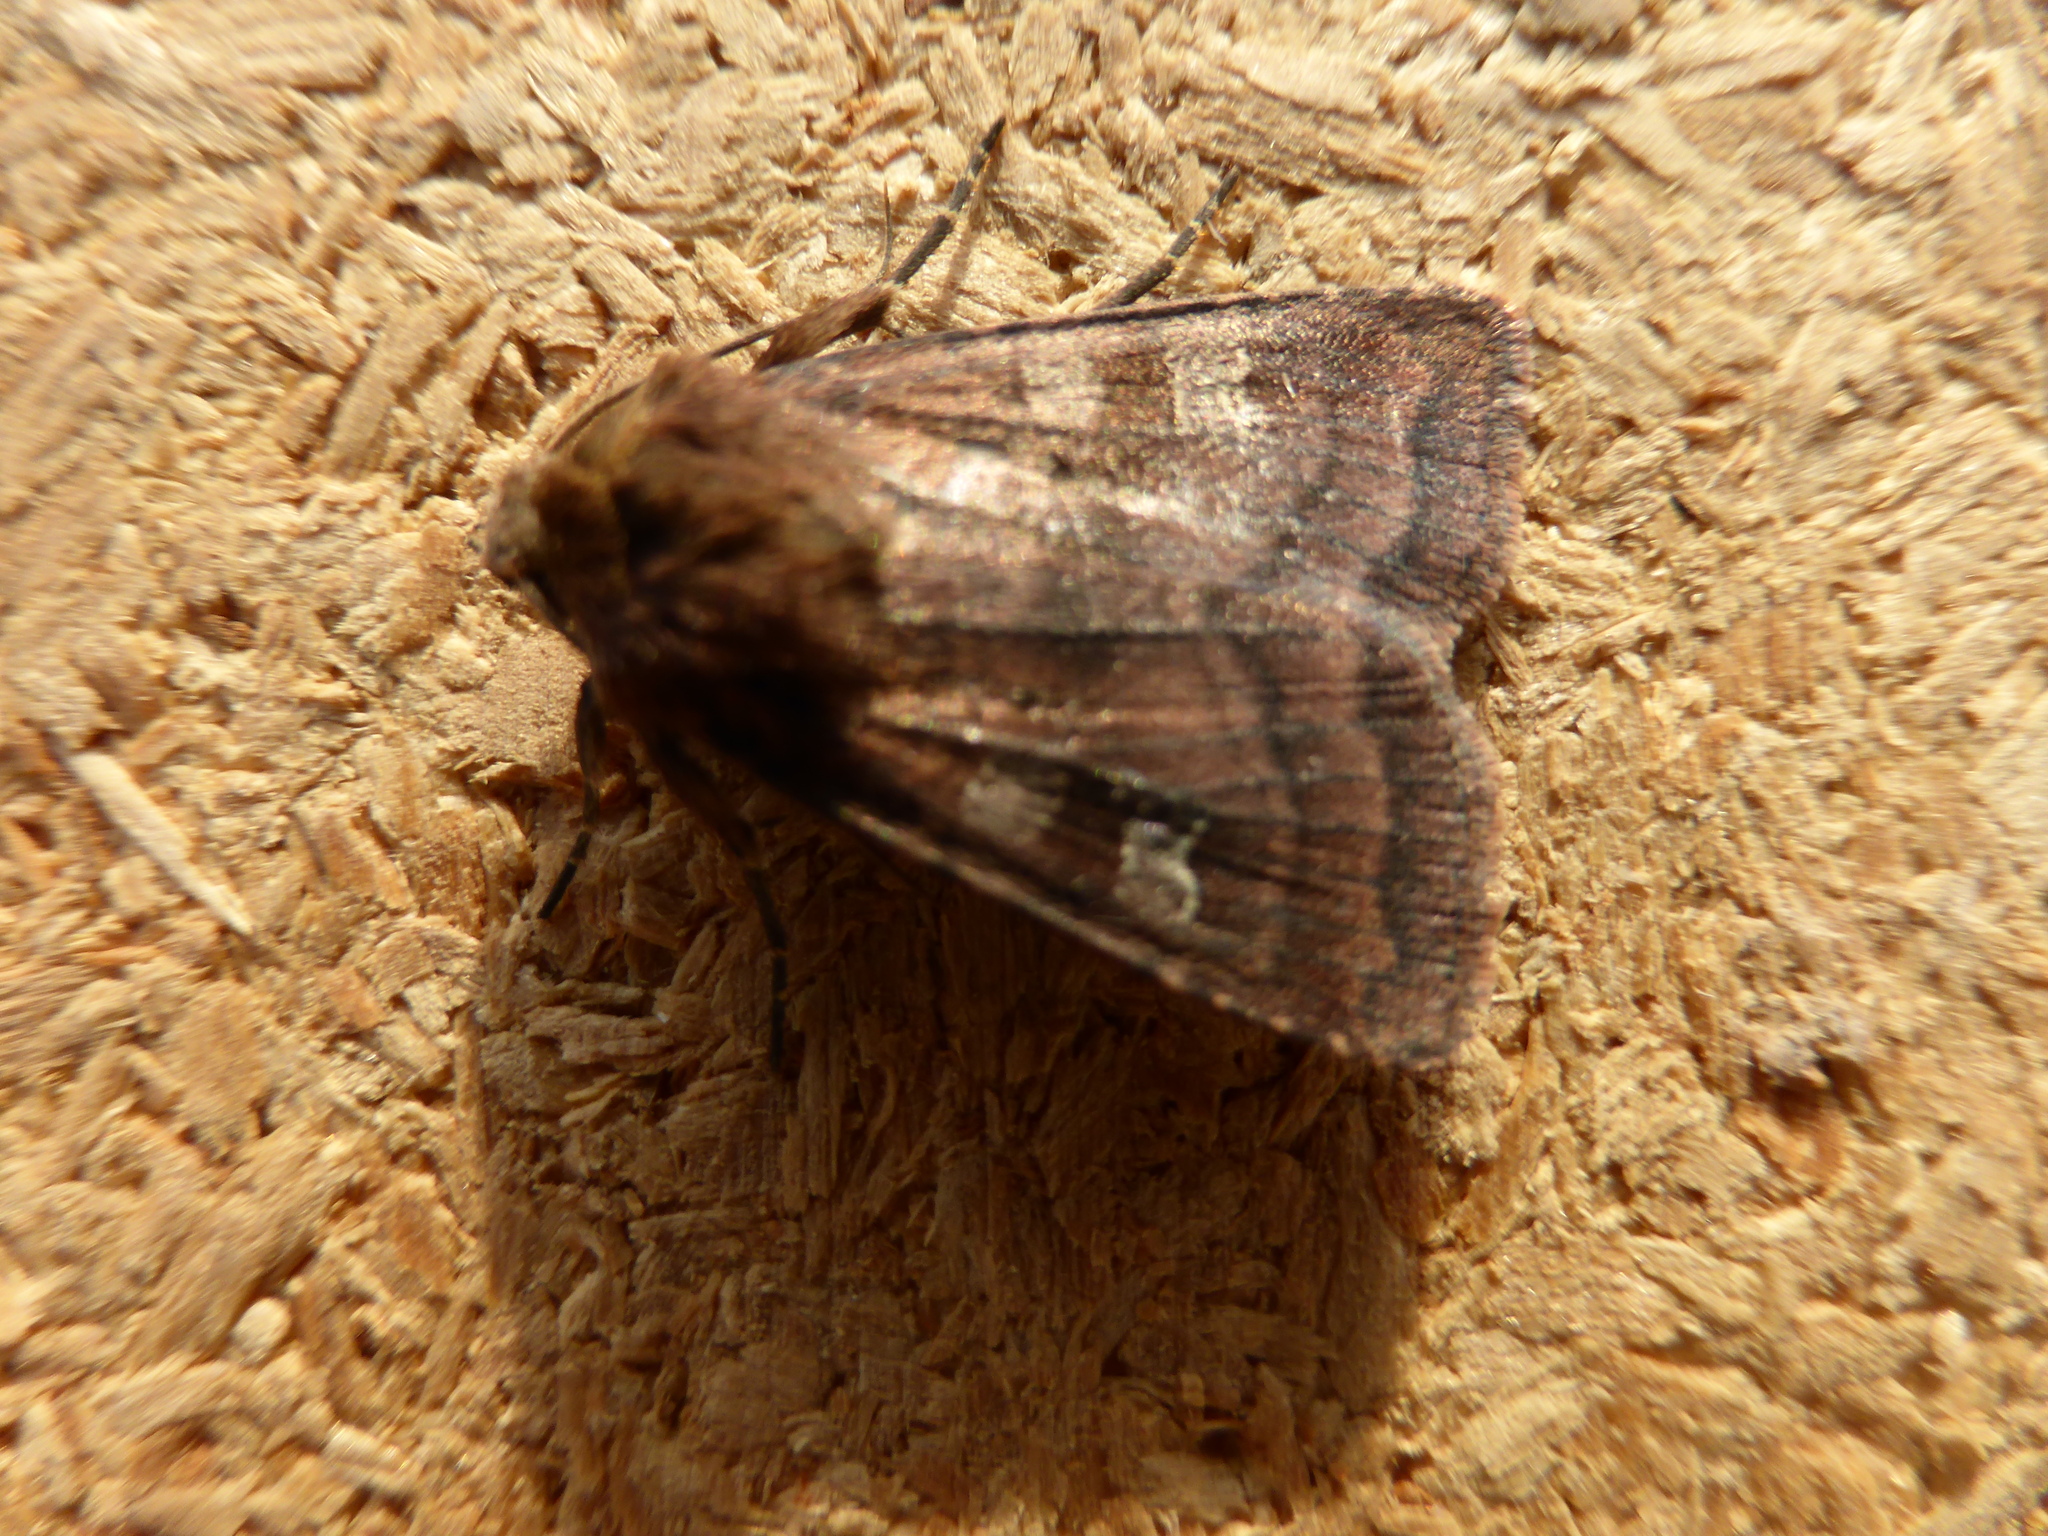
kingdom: Animalia
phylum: Arthropoda
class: Insecta
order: Lepidoptera
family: Noctuidae
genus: Diarsia
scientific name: Diarsia rubi
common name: Small square-spot
